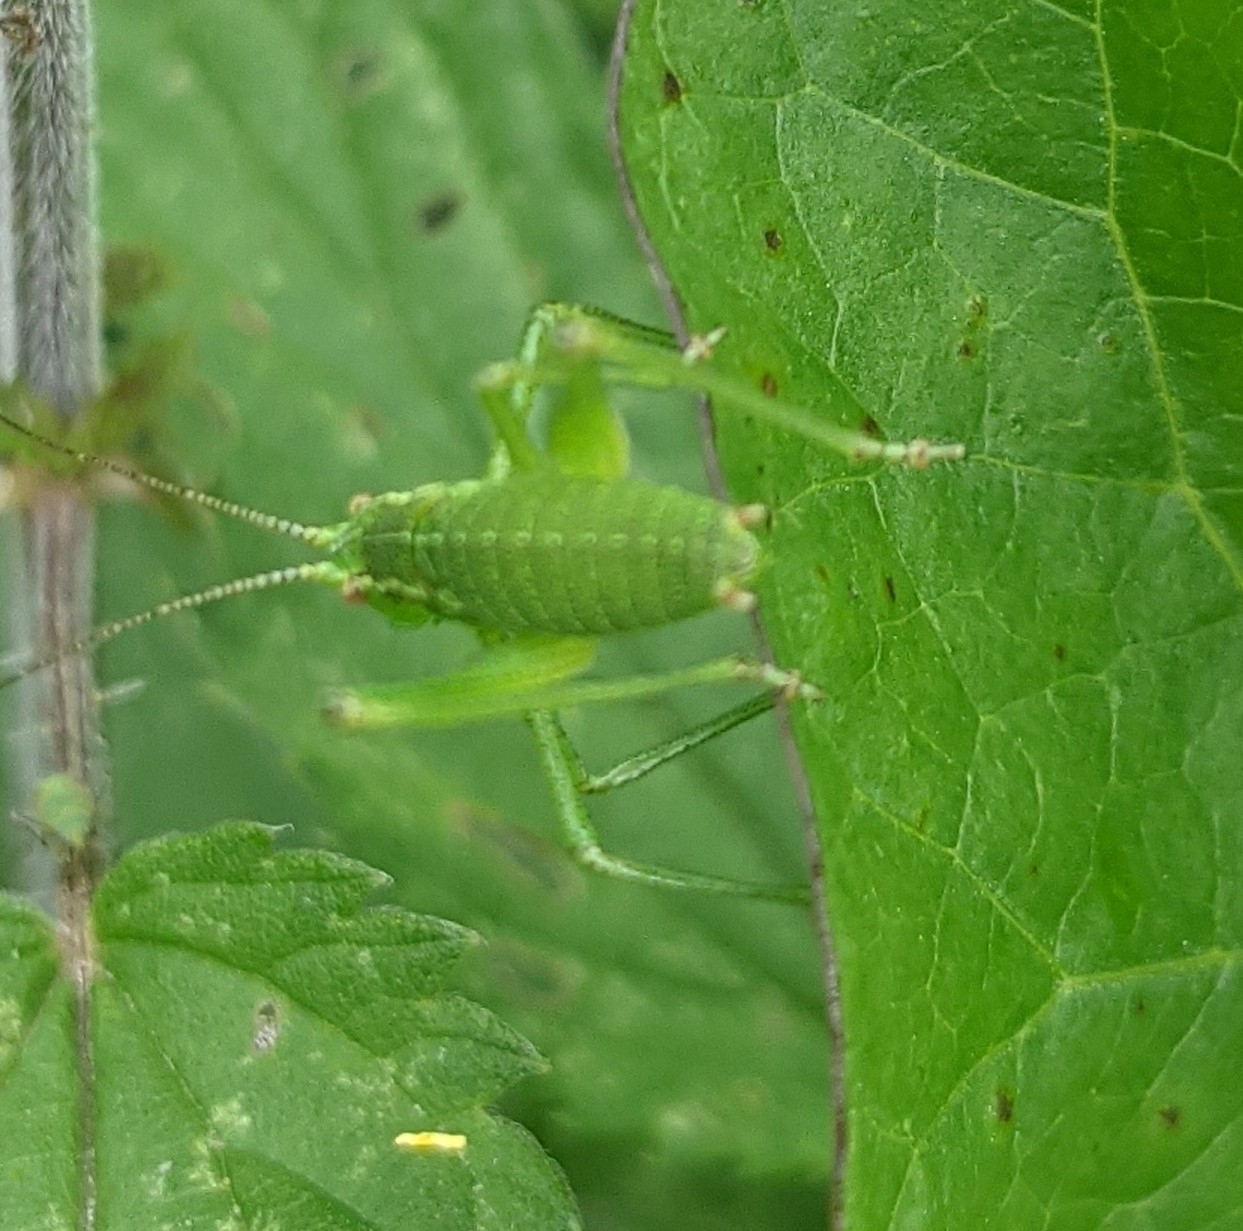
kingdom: Animalia
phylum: Arthropoda
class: Insecta
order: Orthoptera
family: Tettigoniidae
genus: Leptophyes
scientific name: Leptophyes punctatissima
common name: Speckled bush-cricket
